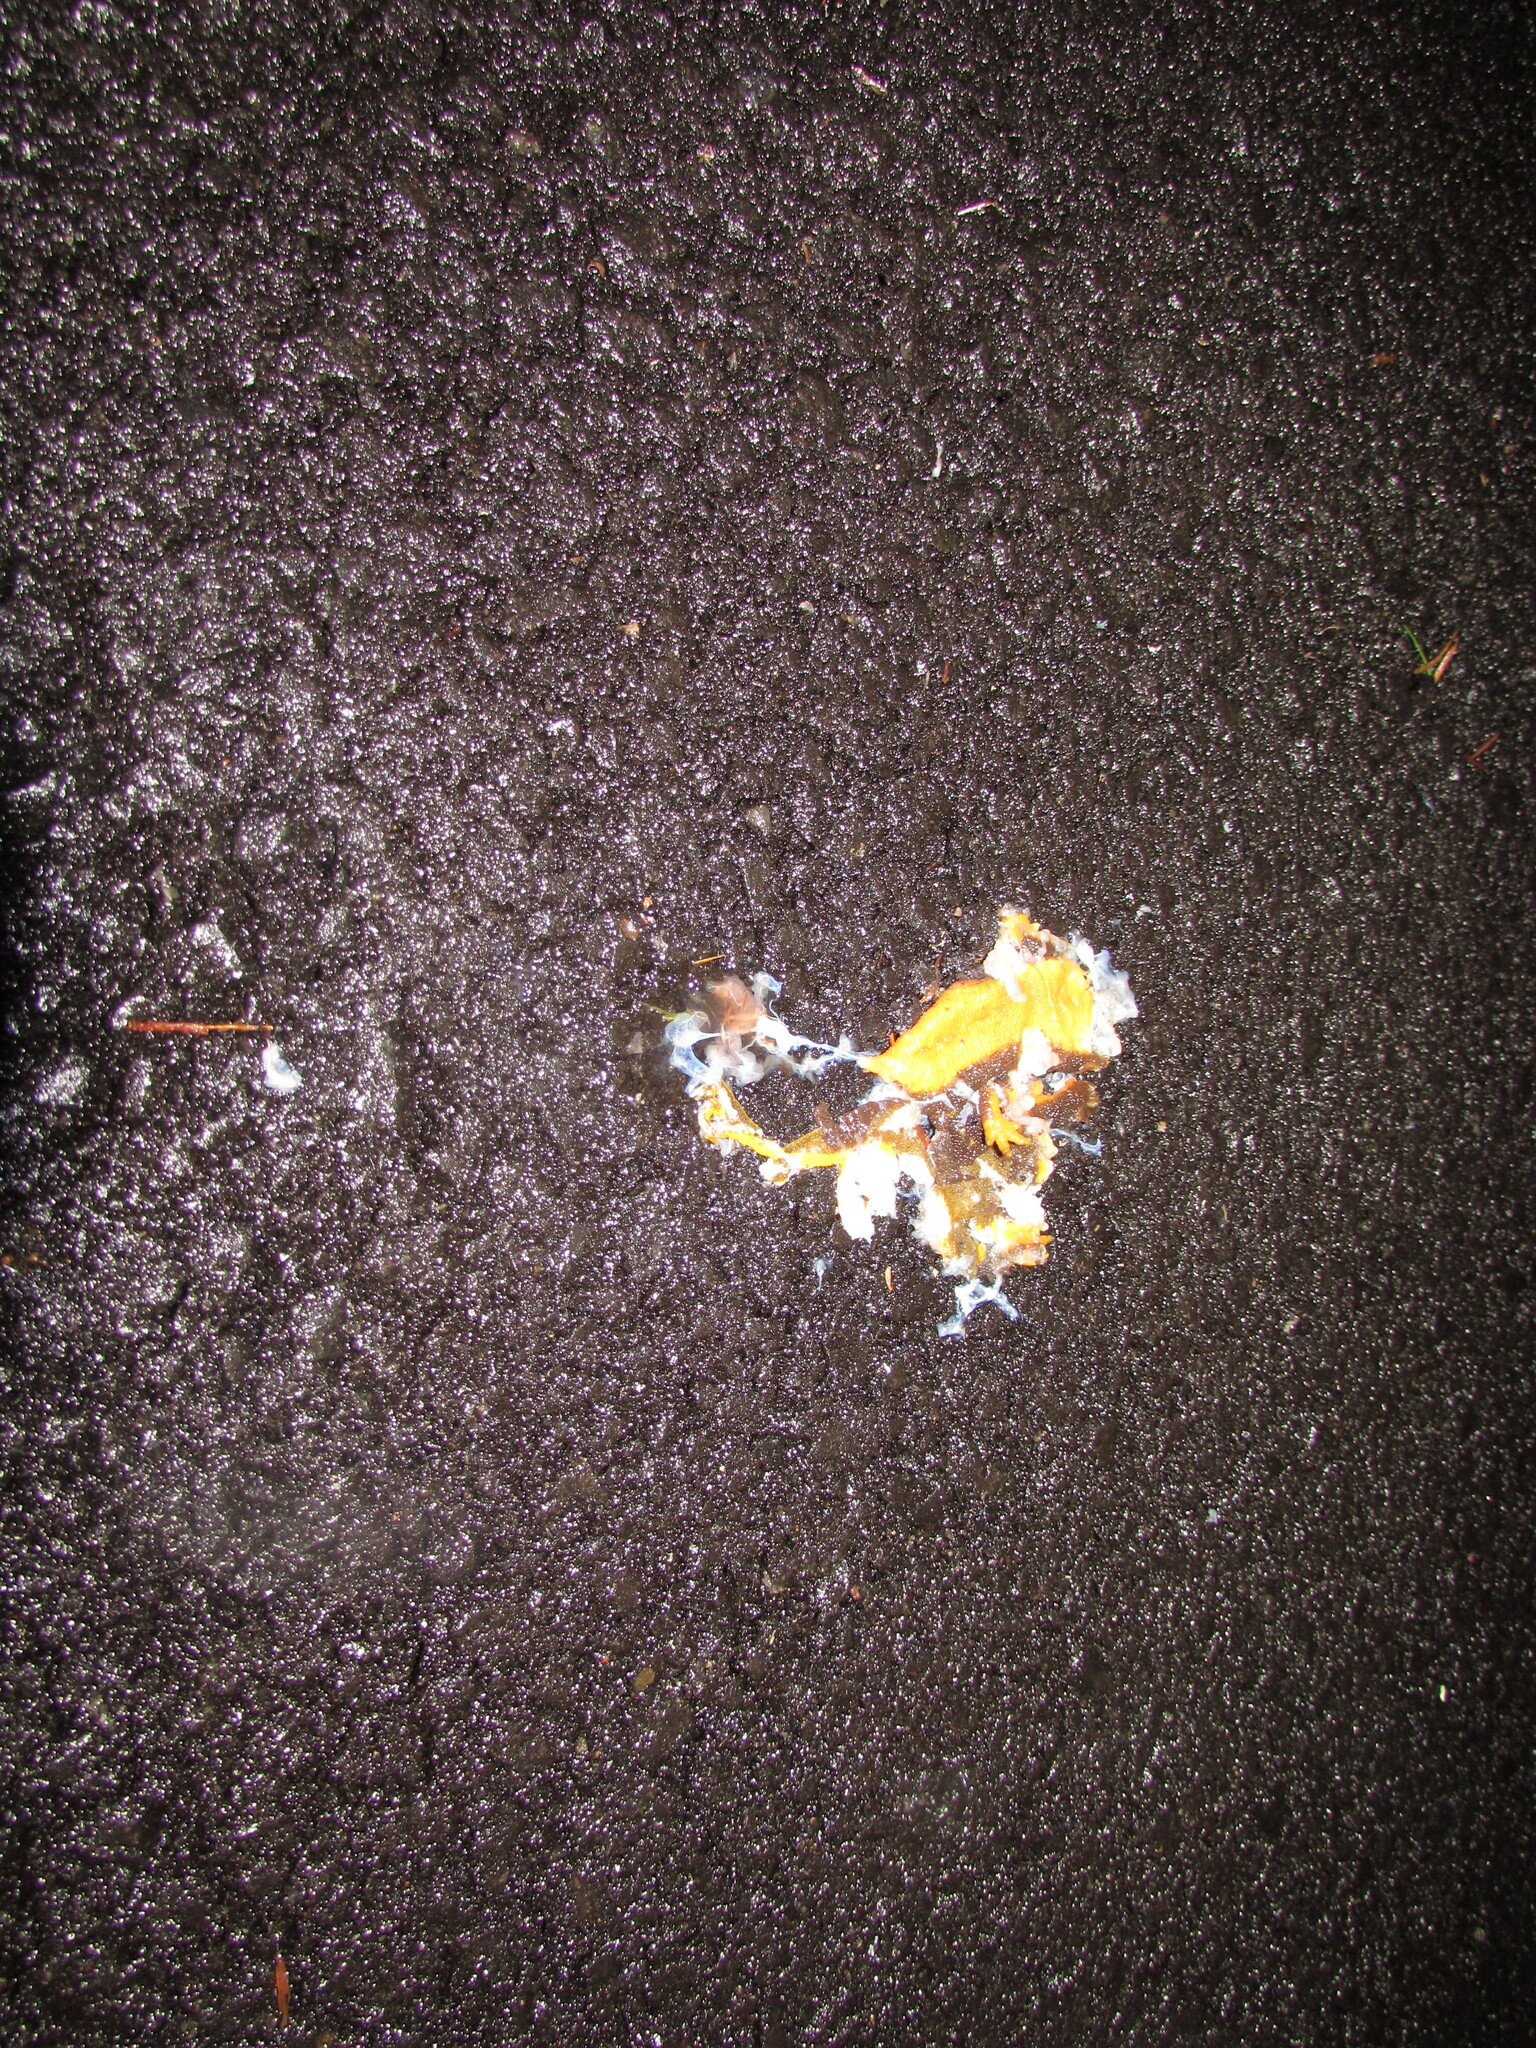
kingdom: Animalia
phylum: Chordata
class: Amphibia
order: Caudata
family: Salamandridae
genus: Taricha
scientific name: Taricha granulosa
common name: Roughskin newt
